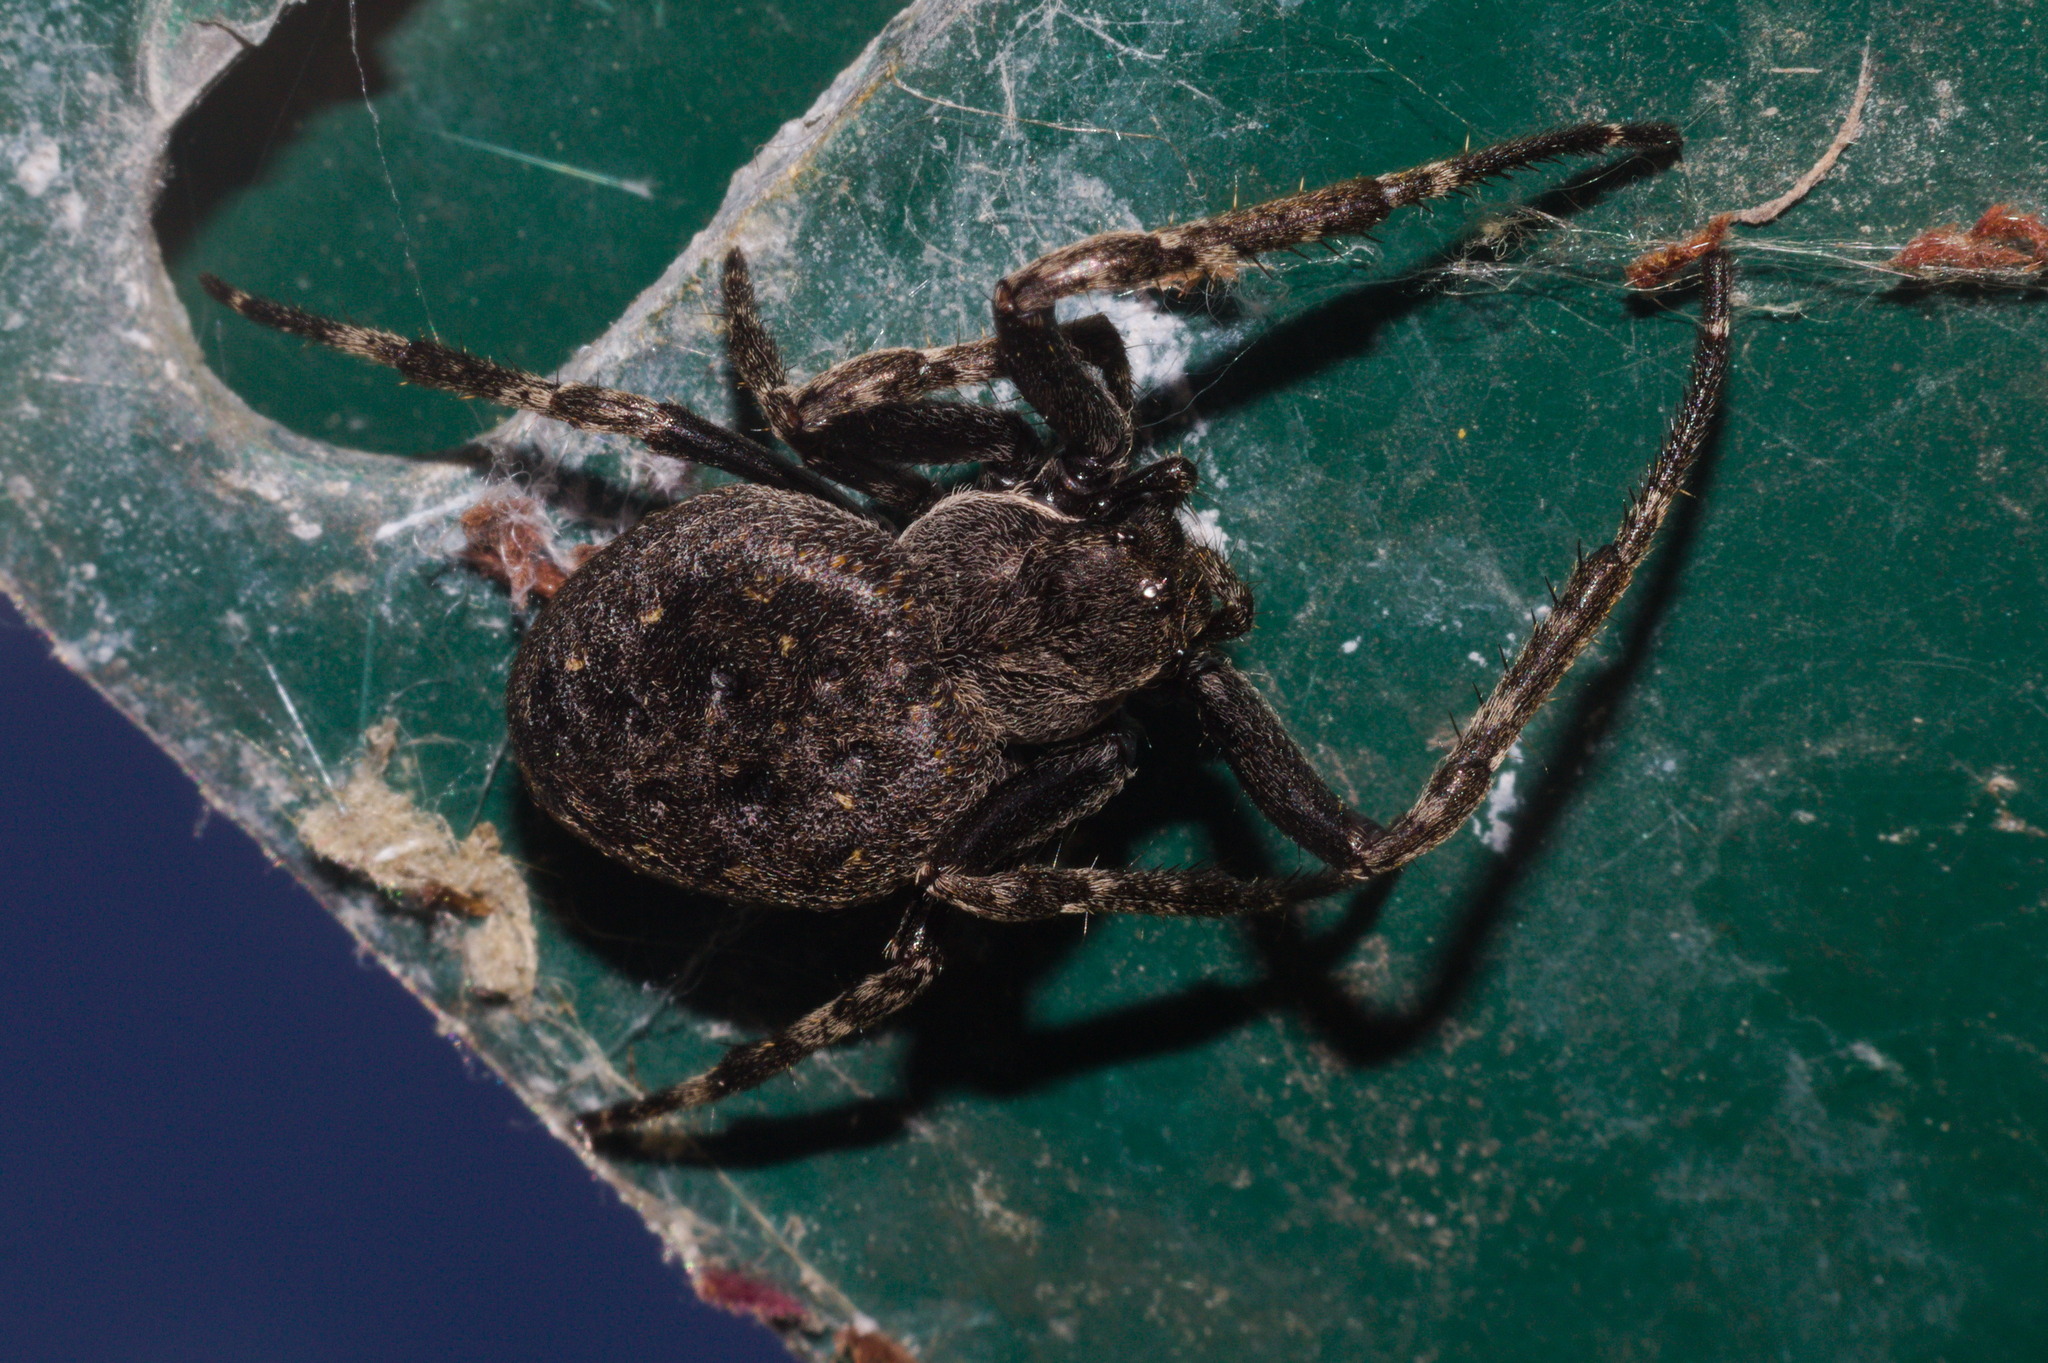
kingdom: Animalia
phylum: Arthropoda
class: Arachnida
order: Araneae
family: Araneidae
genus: Nuctenea
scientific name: Nuctenea umbratica
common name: Toad spider
